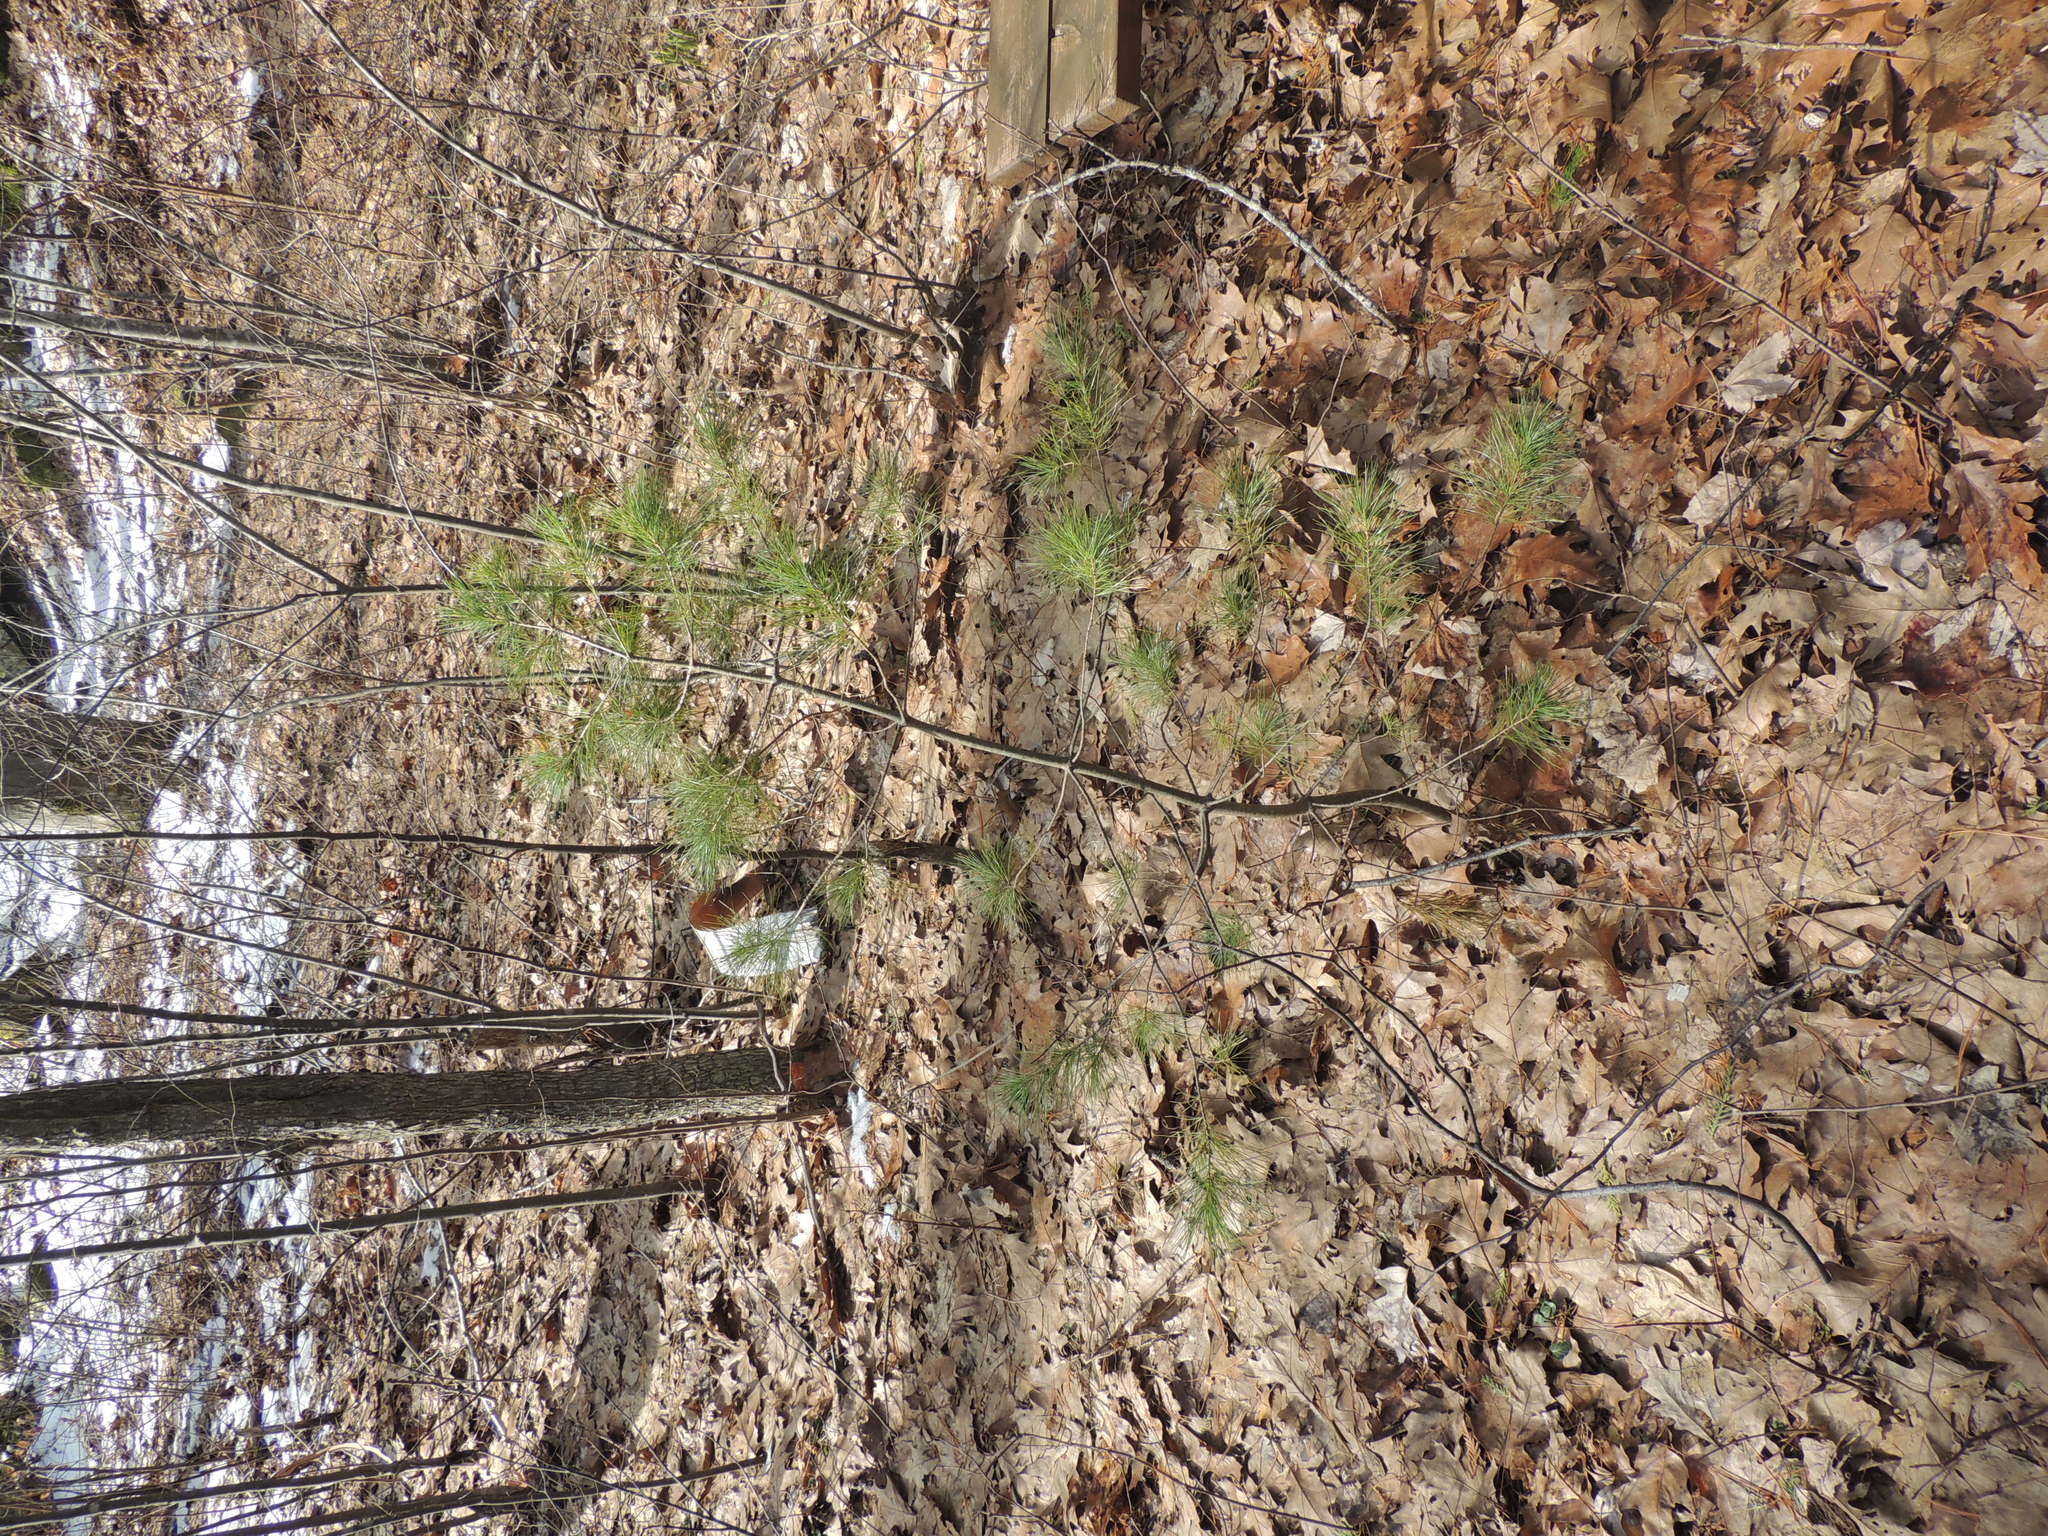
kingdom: Plantae
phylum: Tracheophyta
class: Pinopsida
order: Pinales
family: Pinaceae
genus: Pinus
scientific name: Pinus strobus
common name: Weymouth pine
